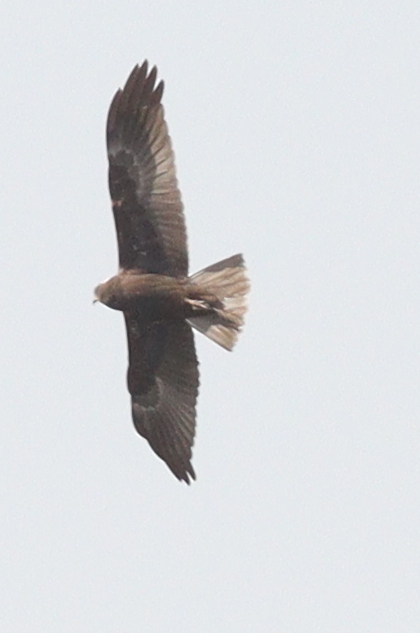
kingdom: Animalia
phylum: Chordata
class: Aves
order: Accipitriformes
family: Accipitridae
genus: Circus
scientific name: Circus aeruginosus
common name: Western marsh harrier
